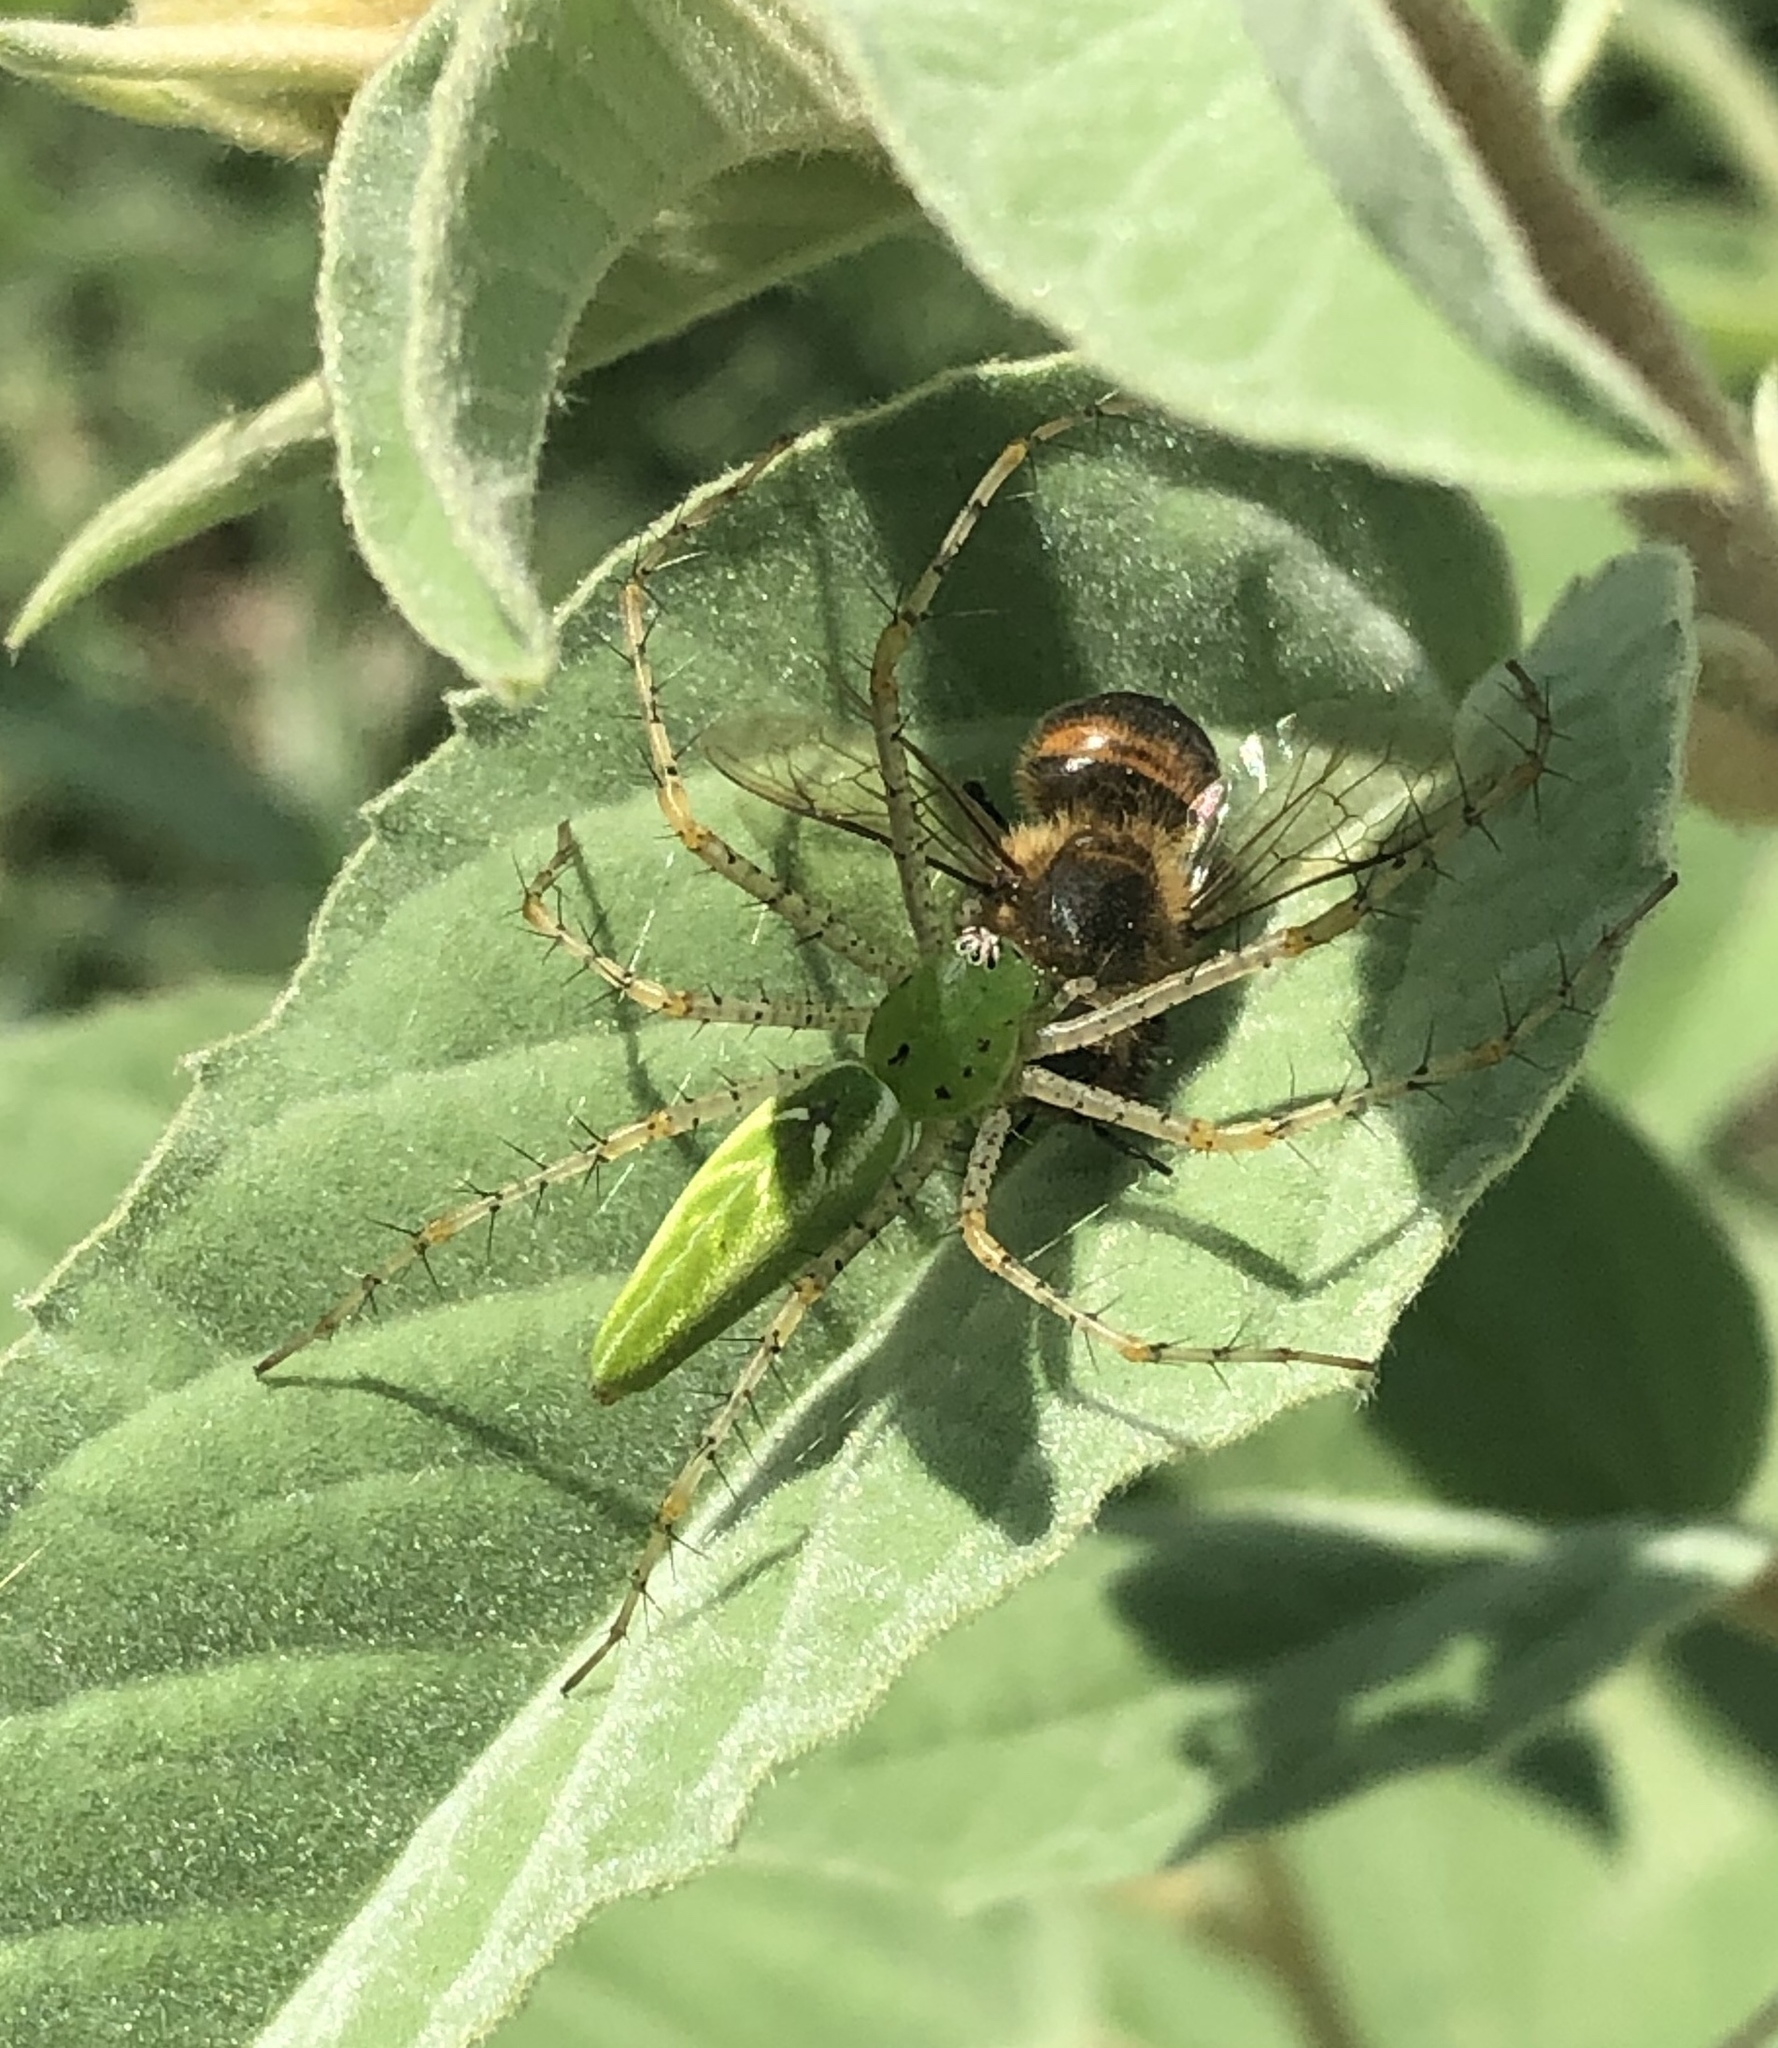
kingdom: Animalia
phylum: Arthropoda
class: Arachnida
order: Araneae
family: Oxyopidae
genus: Peucetia
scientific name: Peucetia viridans
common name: Lynx spiders
